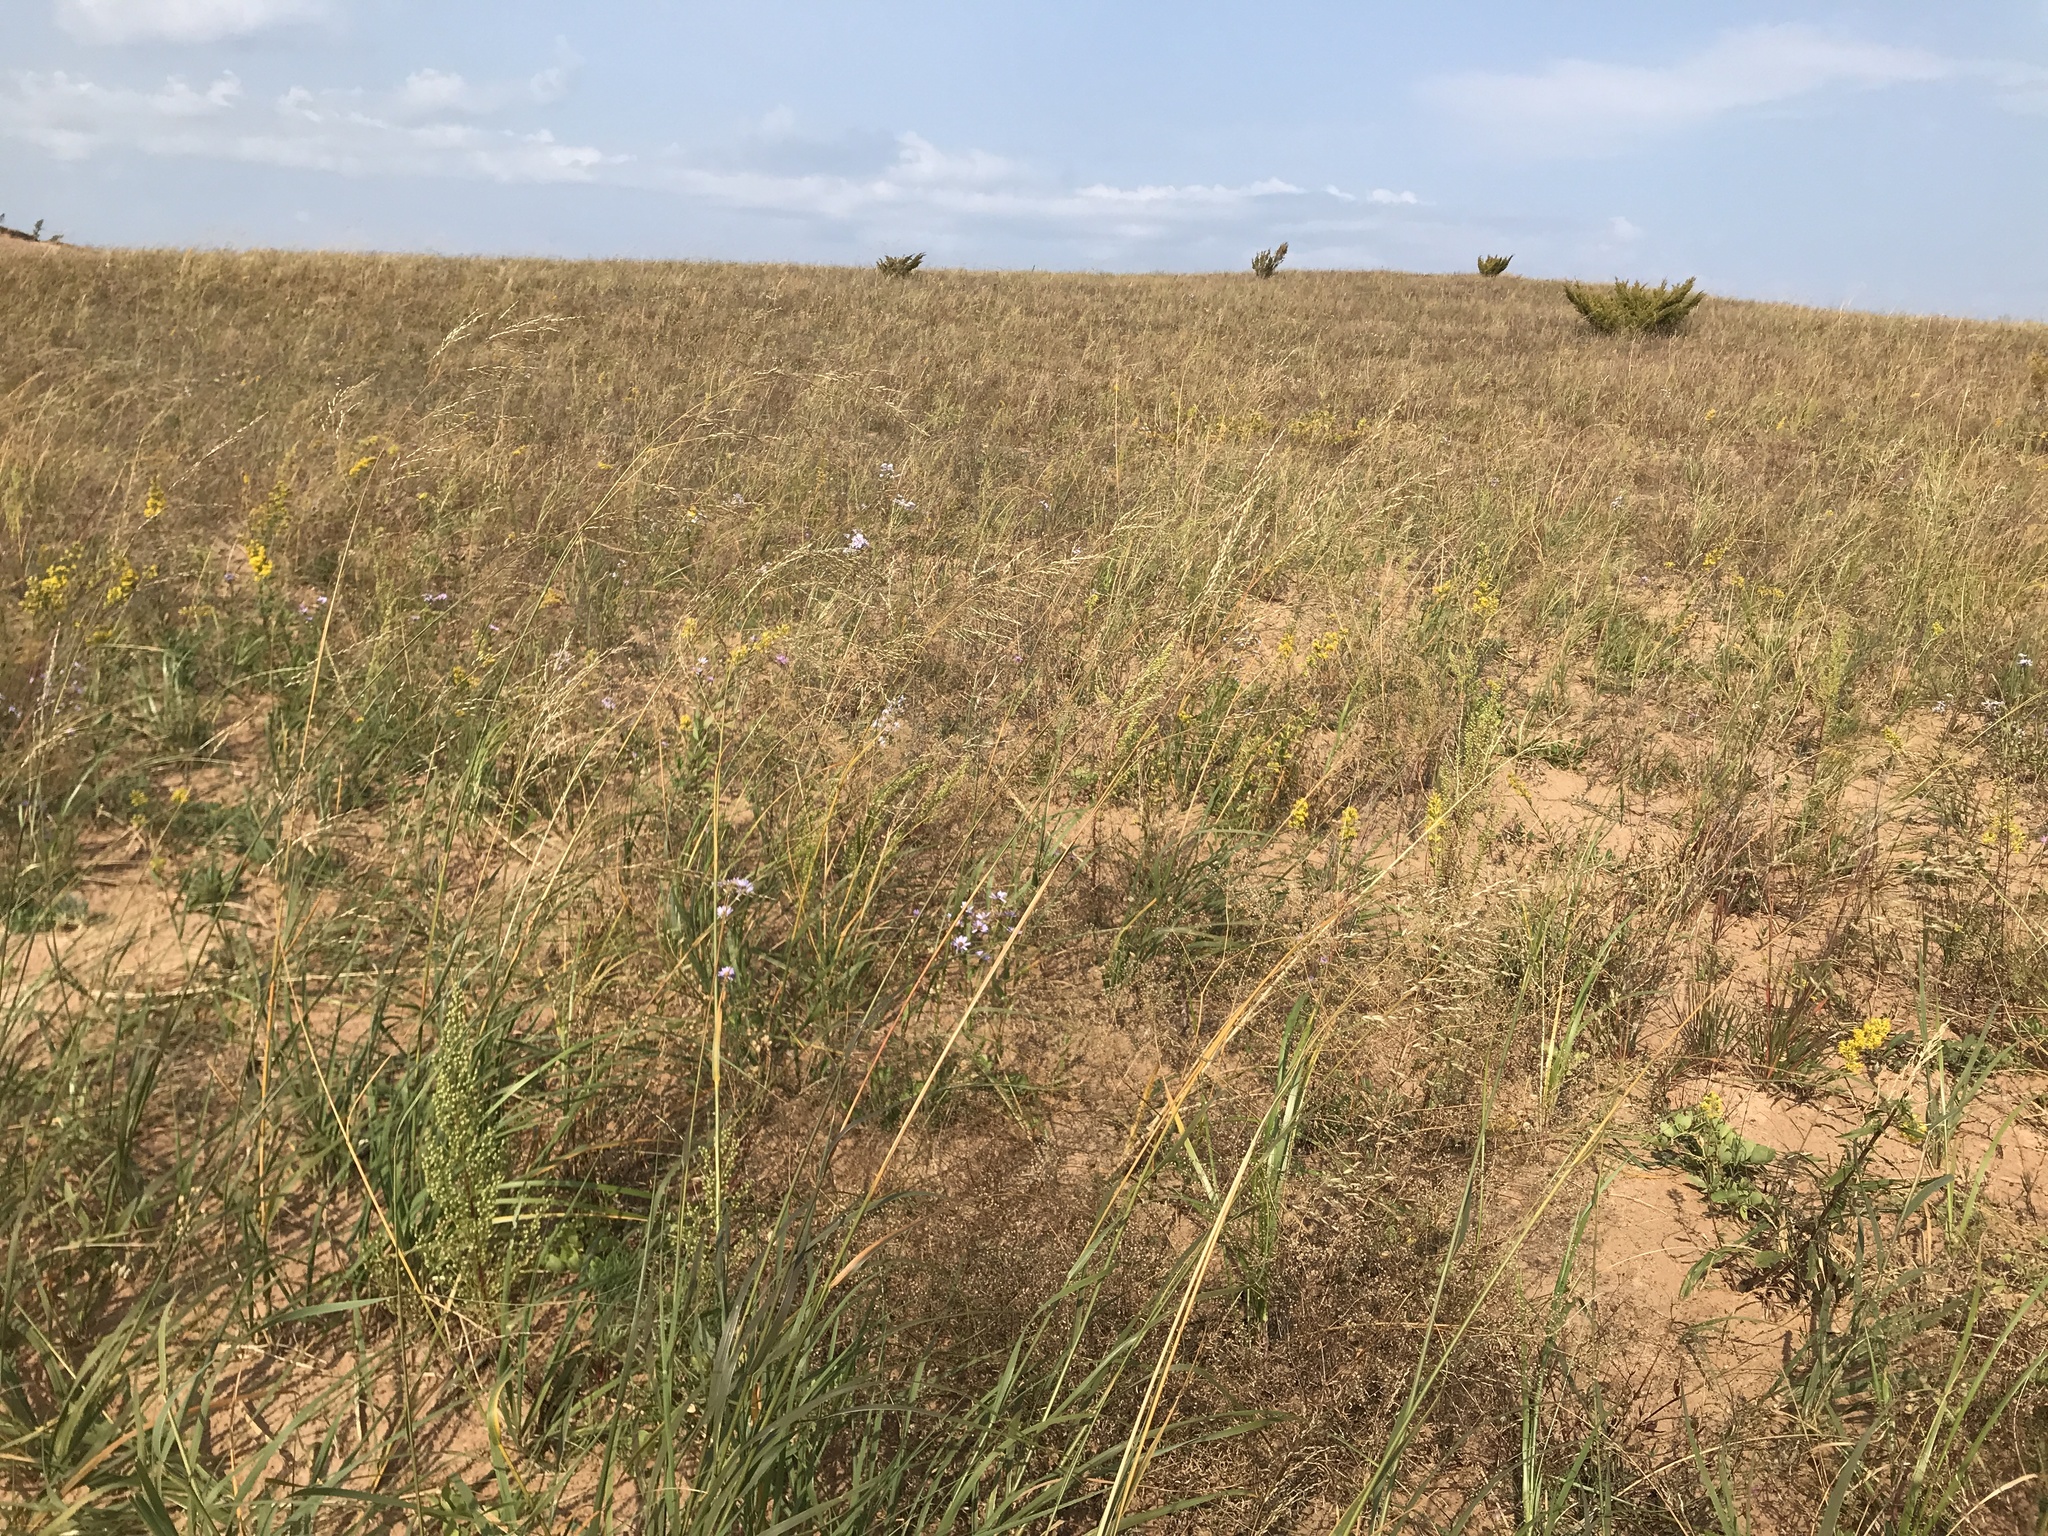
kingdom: Plantae
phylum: Tracheophyta
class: Liliopsida
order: Poales
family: Poaceae
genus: Calamagrostis
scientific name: Calamagrostis breviligulata
